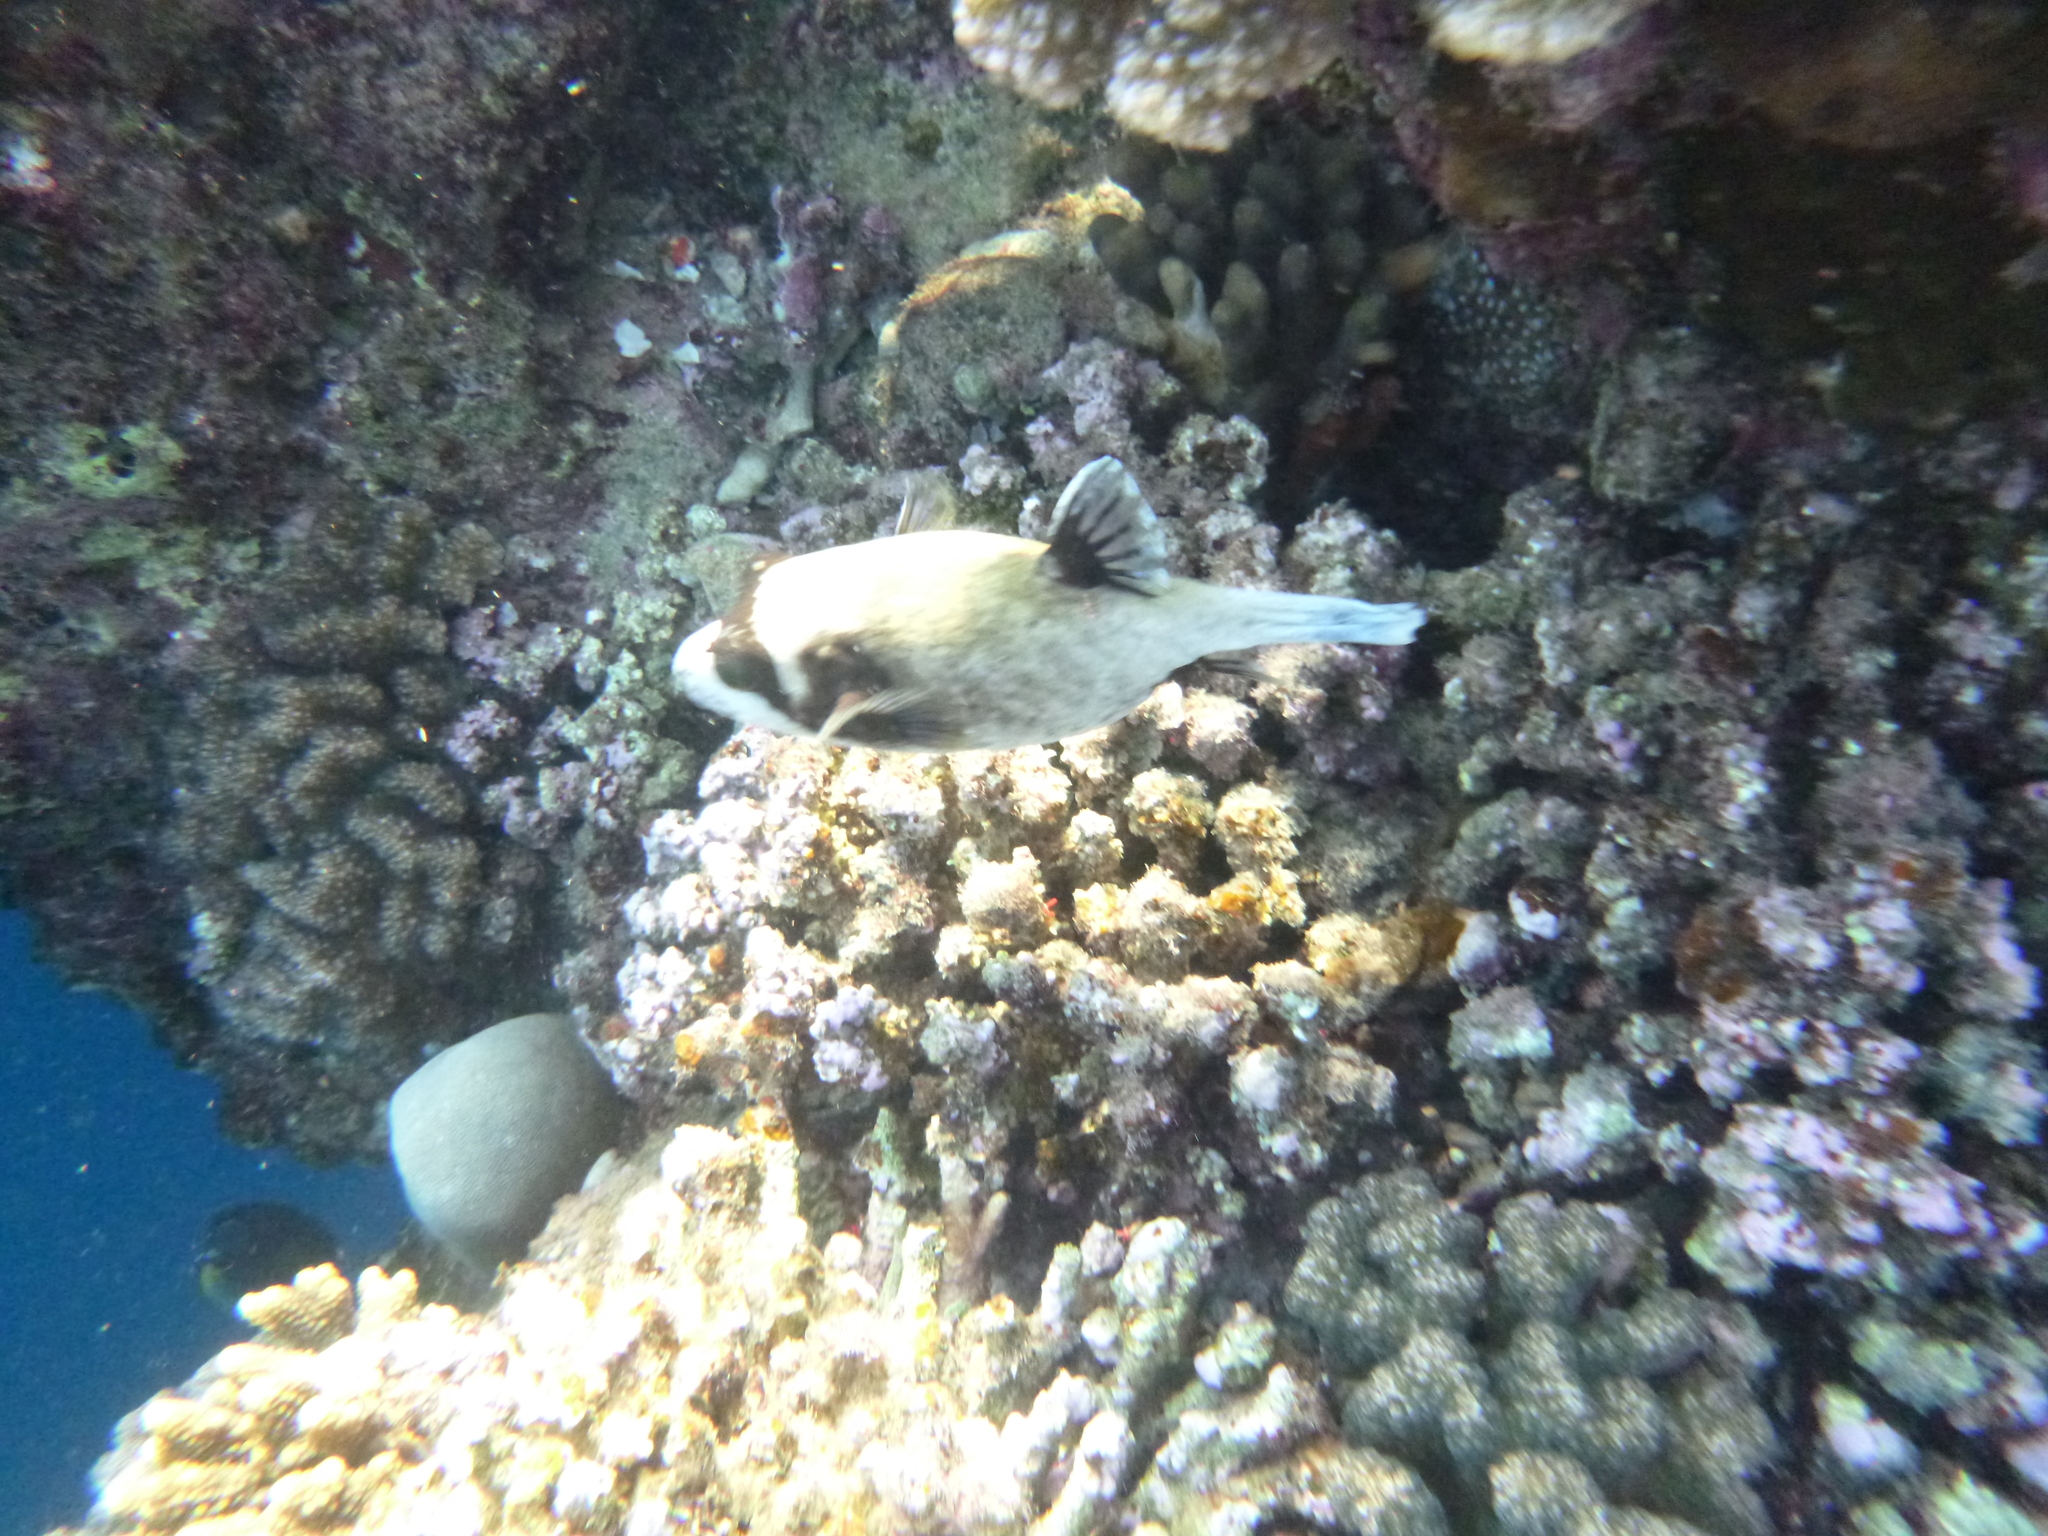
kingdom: Animalia
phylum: Chordata
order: Tetraodontiformes
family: Tetraodontidae
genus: Arothron
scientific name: Arothron diadematus
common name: Masked puffer
